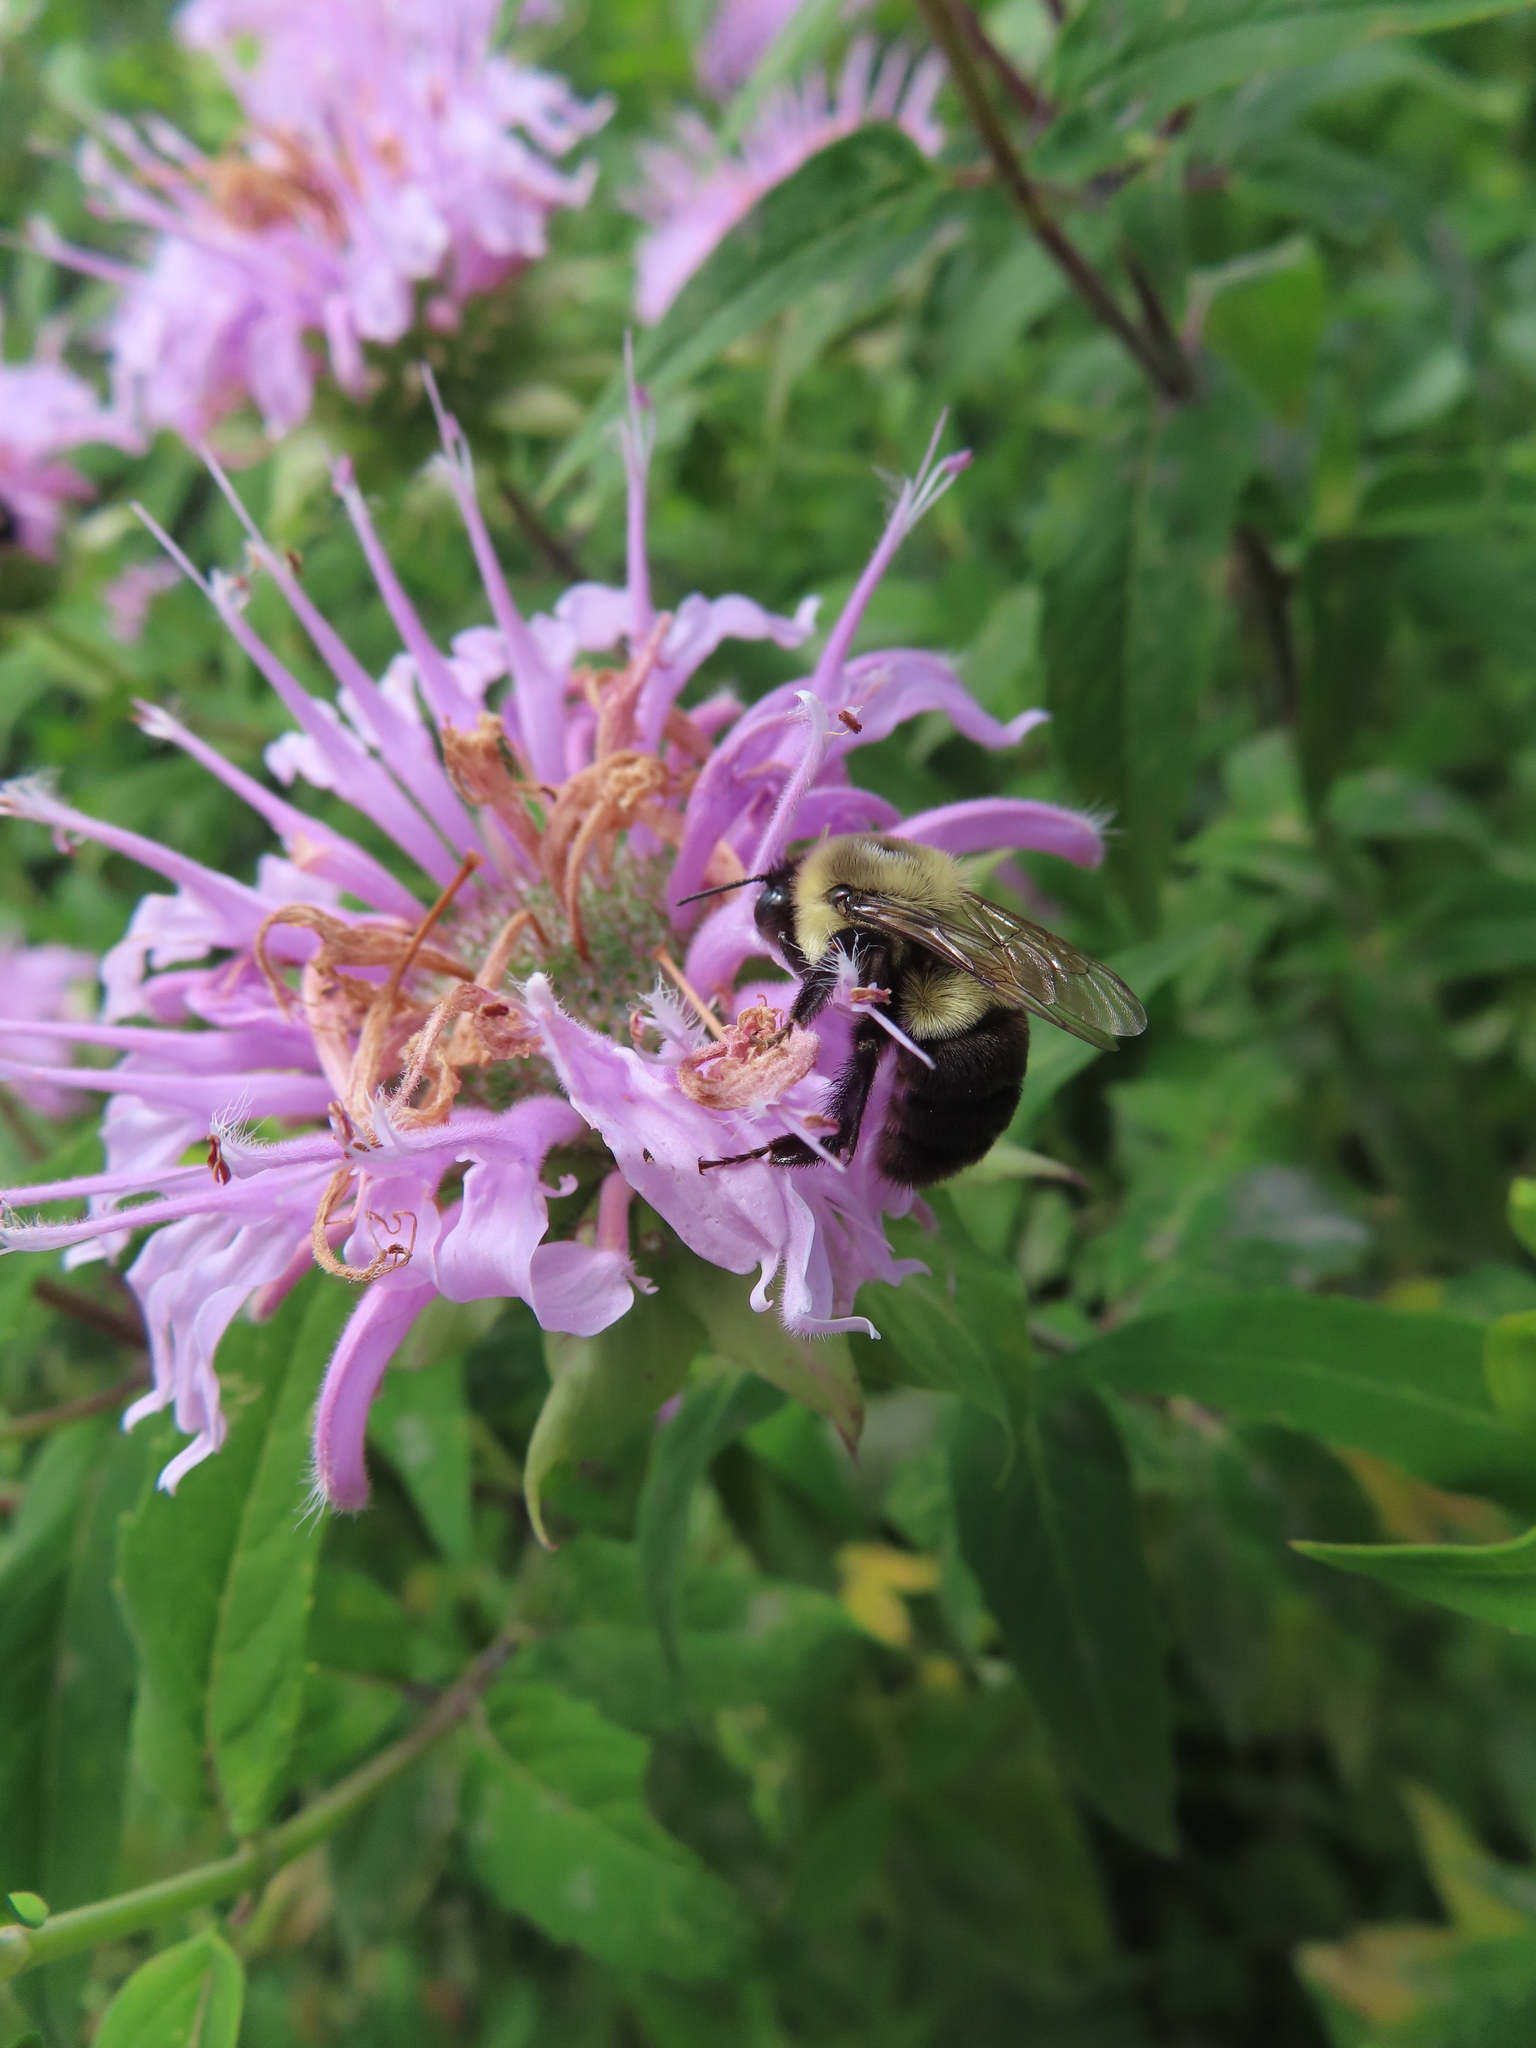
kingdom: Animalia
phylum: Arthropoda
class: Insecta
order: Hymenoptera
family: Apidae
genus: Bombus
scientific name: Bombus impatiens
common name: Common eastern bumble bee
